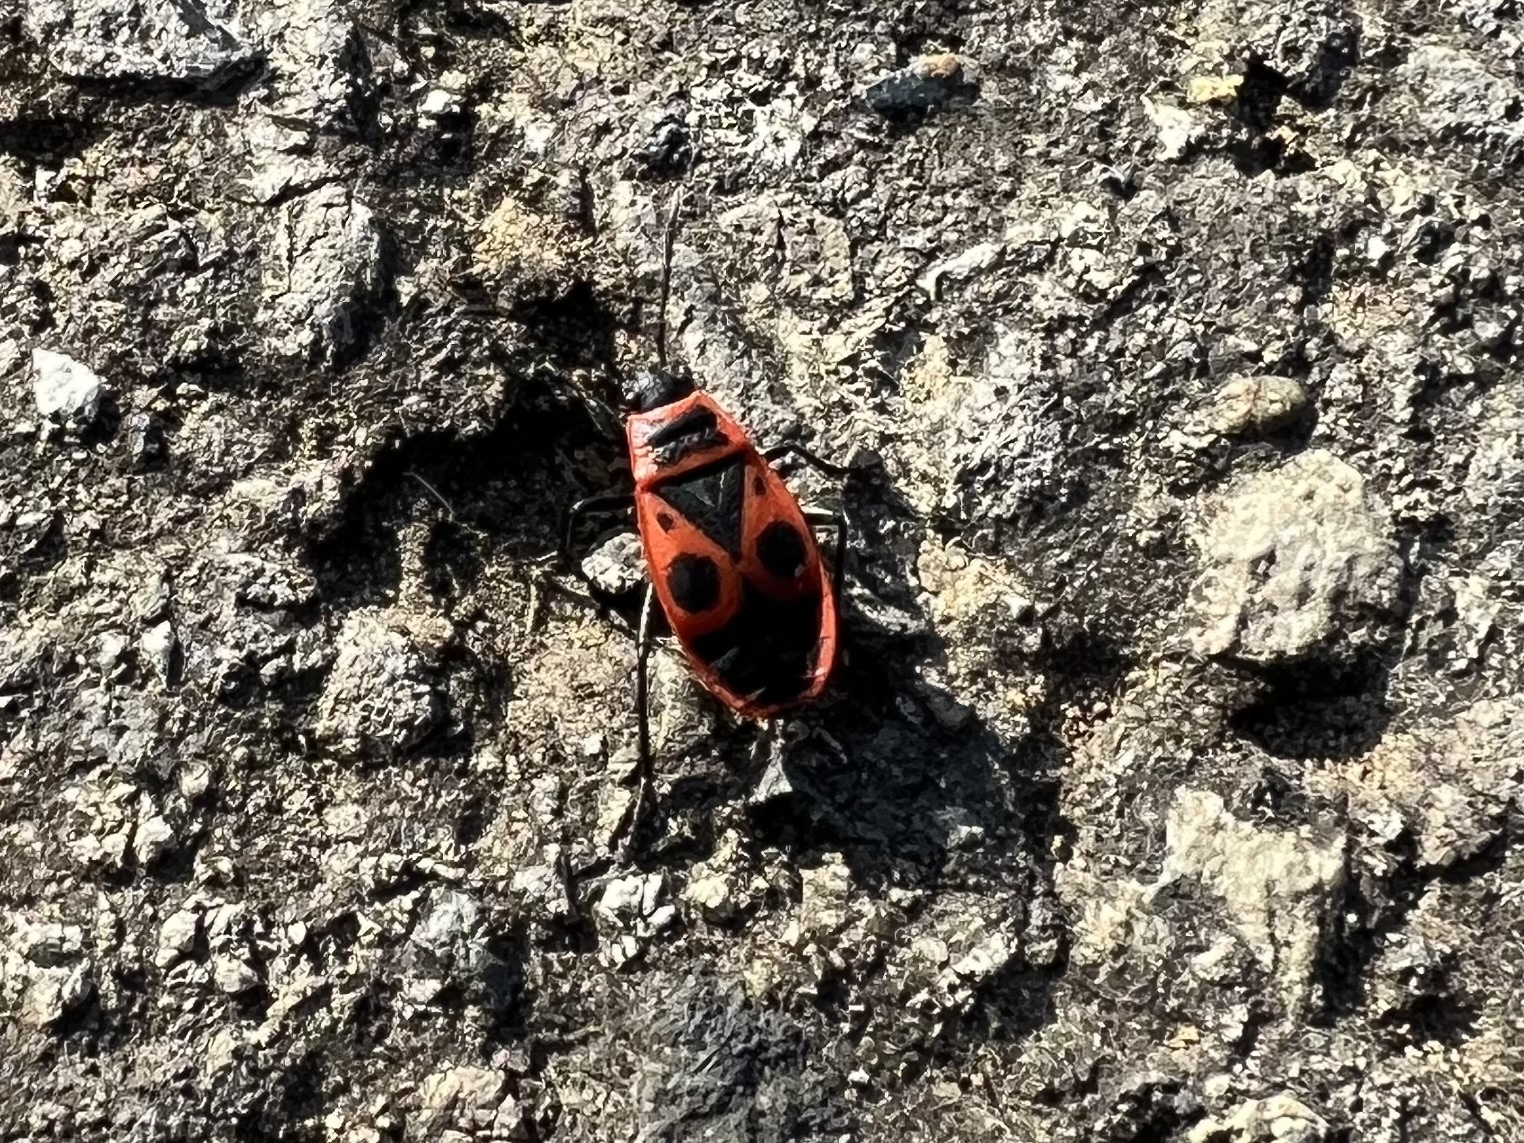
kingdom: Animalia
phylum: Arthropoda
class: Insecta
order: Hemiptera
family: Pyrrhocoridae
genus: Pyrrhocoris
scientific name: Pyrrhocoris apterus
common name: Firebug
